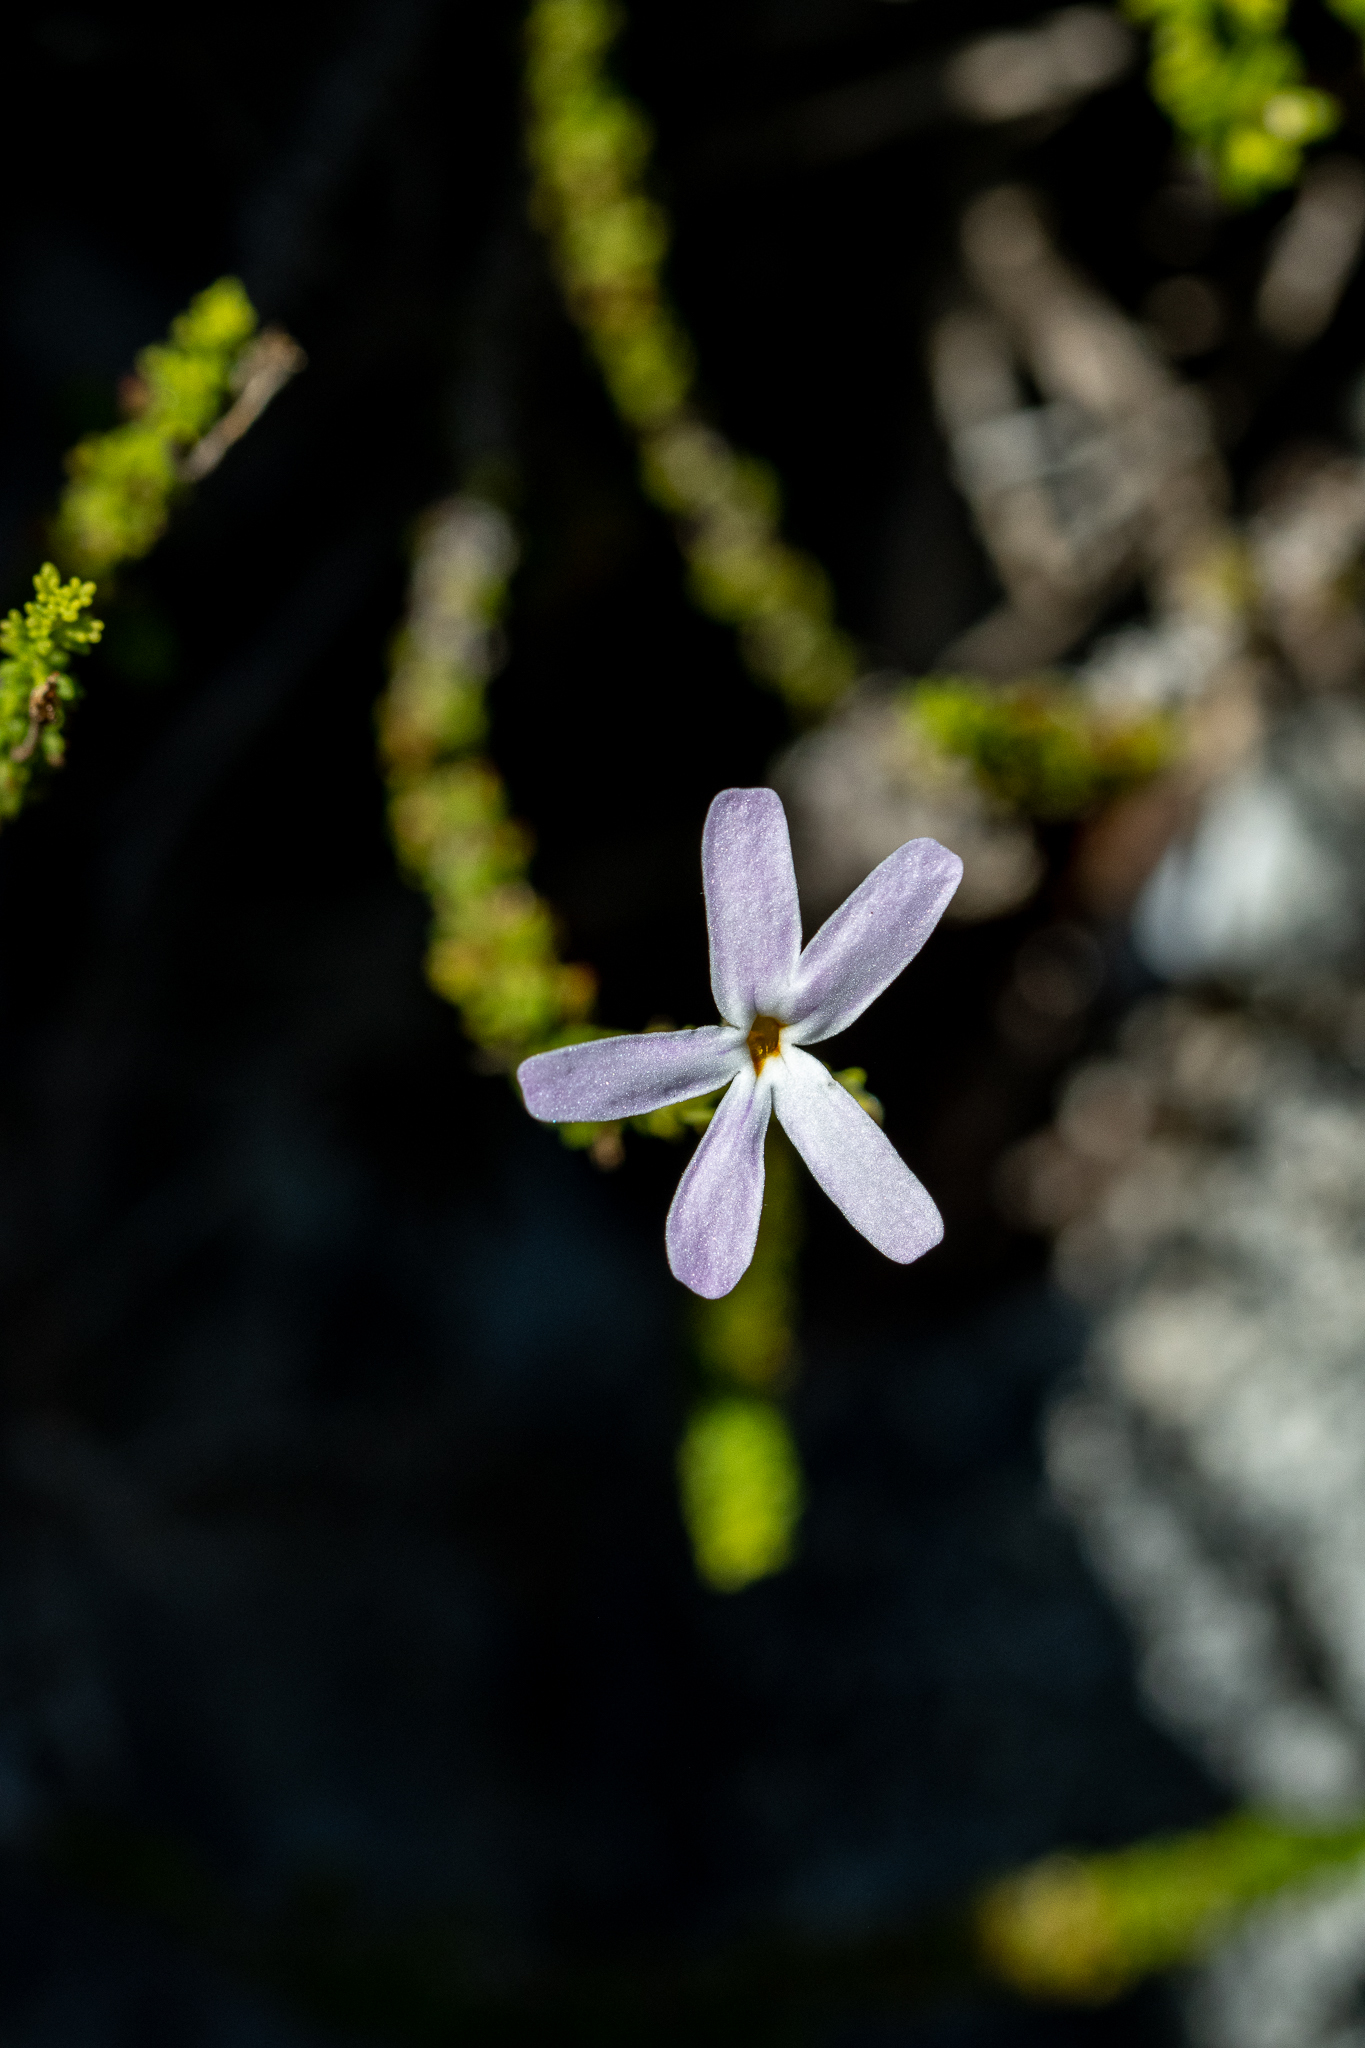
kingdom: Plantae
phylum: Tracheophyta
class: Magnoliopsida
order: Lamiales
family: Scrophulariaceae
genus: Jamesbrittenia
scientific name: Jamesbrittenia calciphila
